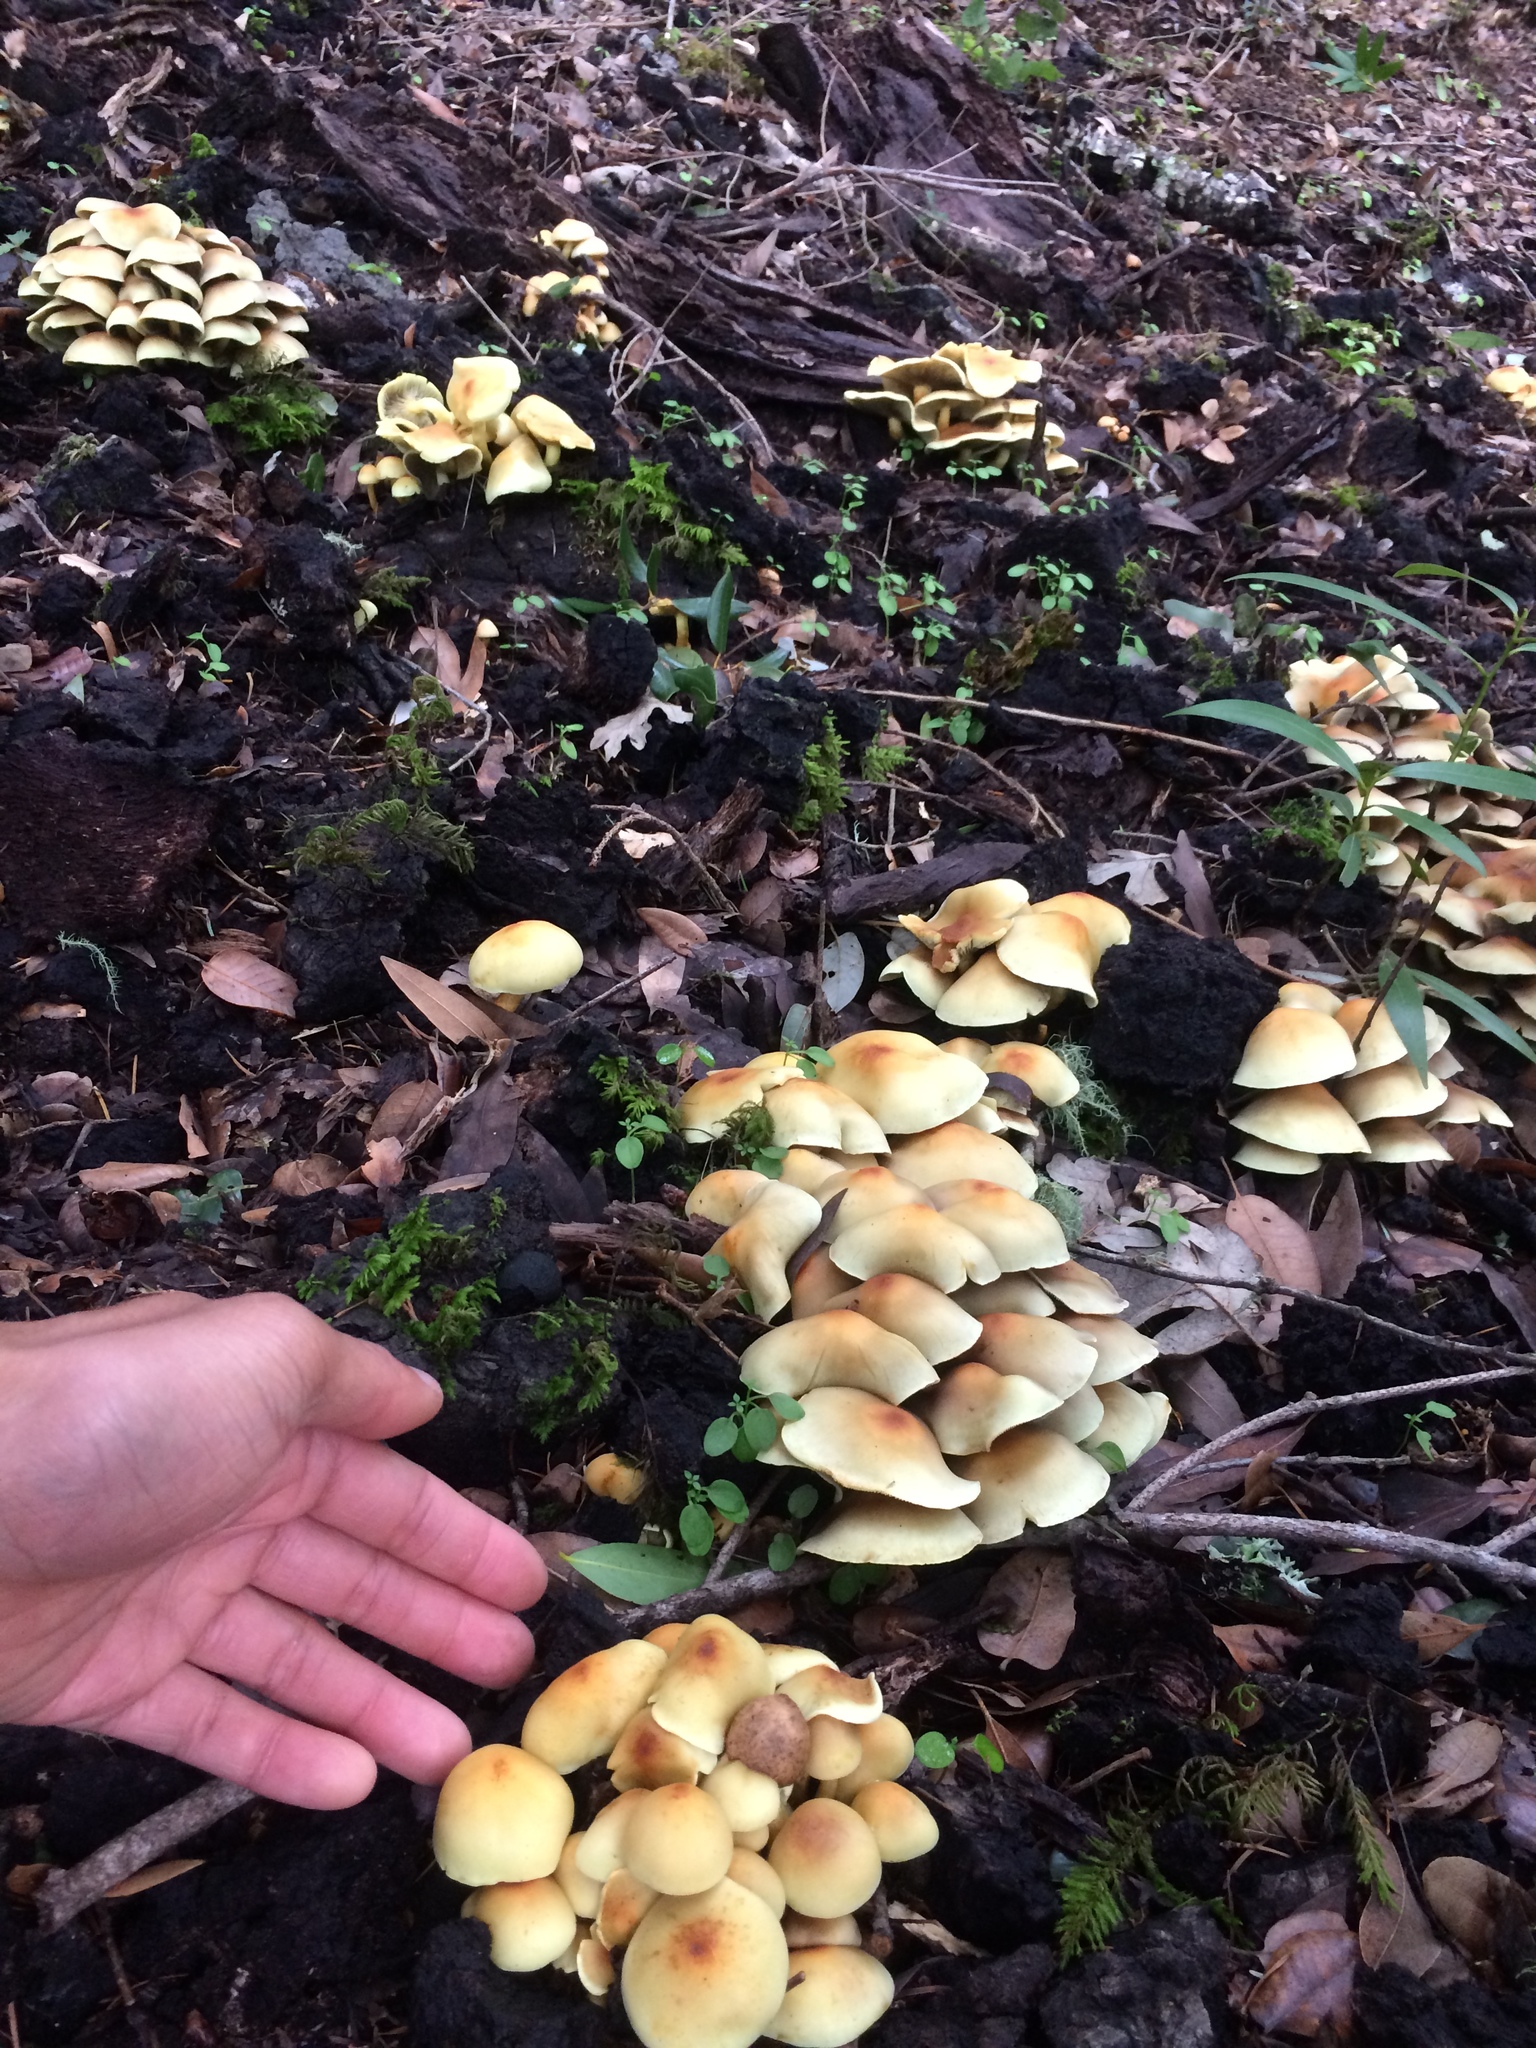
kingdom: Fungi
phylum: Basidiomycota
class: Agaricomycetes
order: Agaricales
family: Strophariaceae
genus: Hypholoma
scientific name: Hypholoma fasciculare
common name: Sulphur tuft
